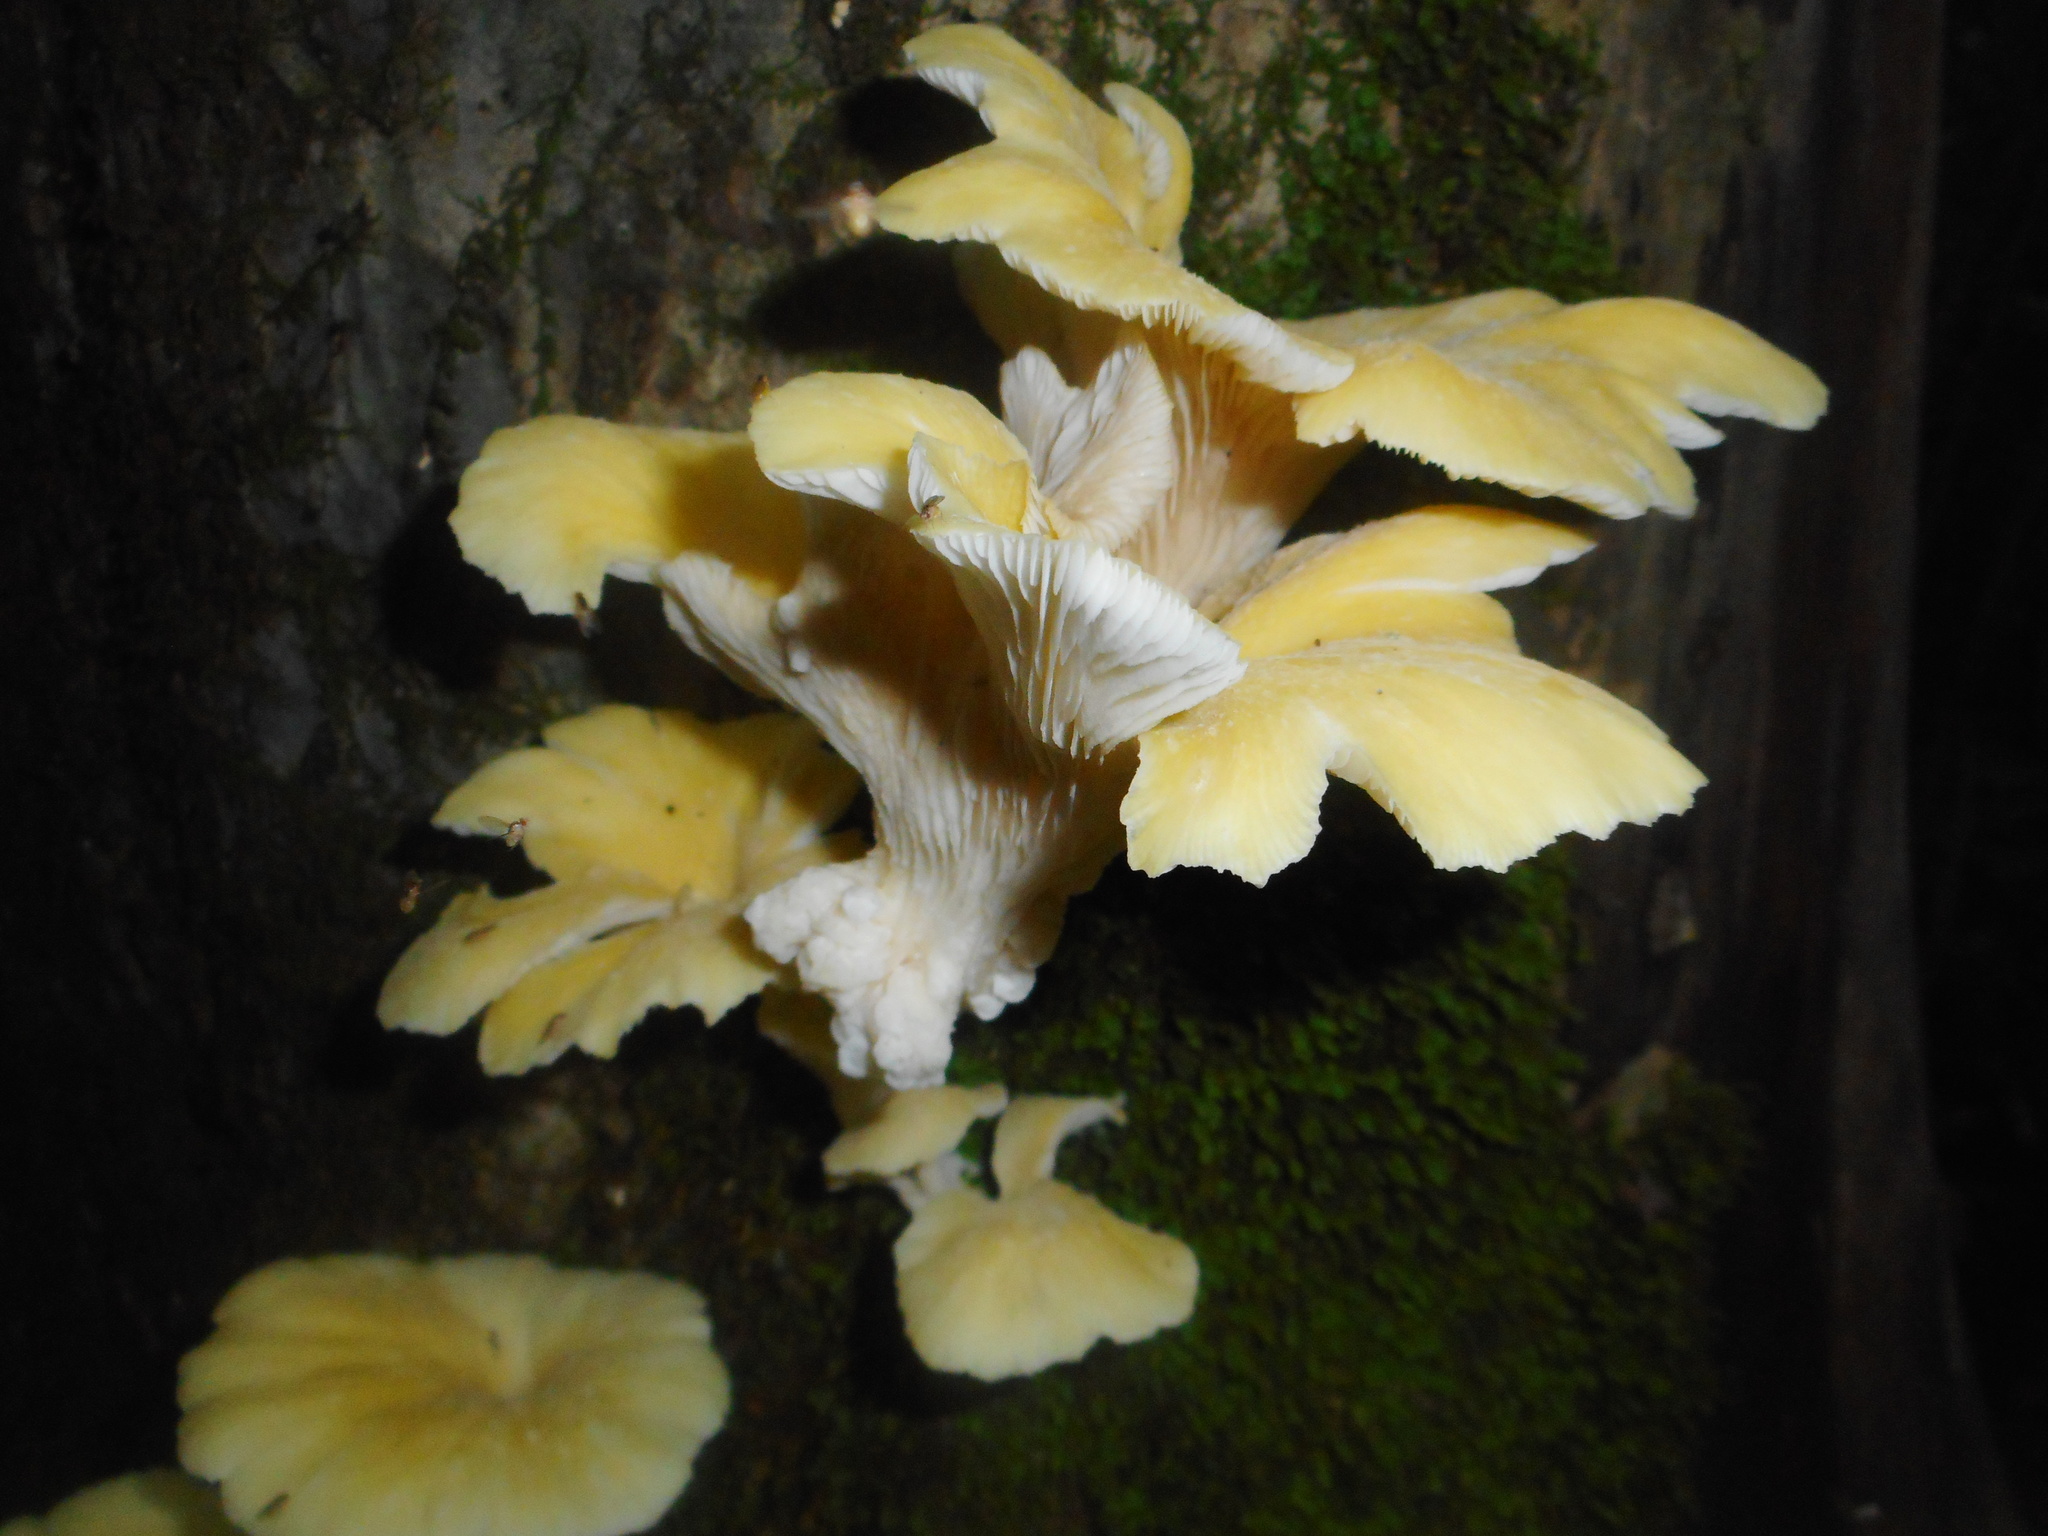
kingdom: Fungi
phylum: Basidiomycota
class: Agaricomycetes
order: Agaricales
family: Pleurotaceae
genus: Pleurotus
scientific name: Pleurotus citrinopileatus
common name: Golden oyster mushroom
